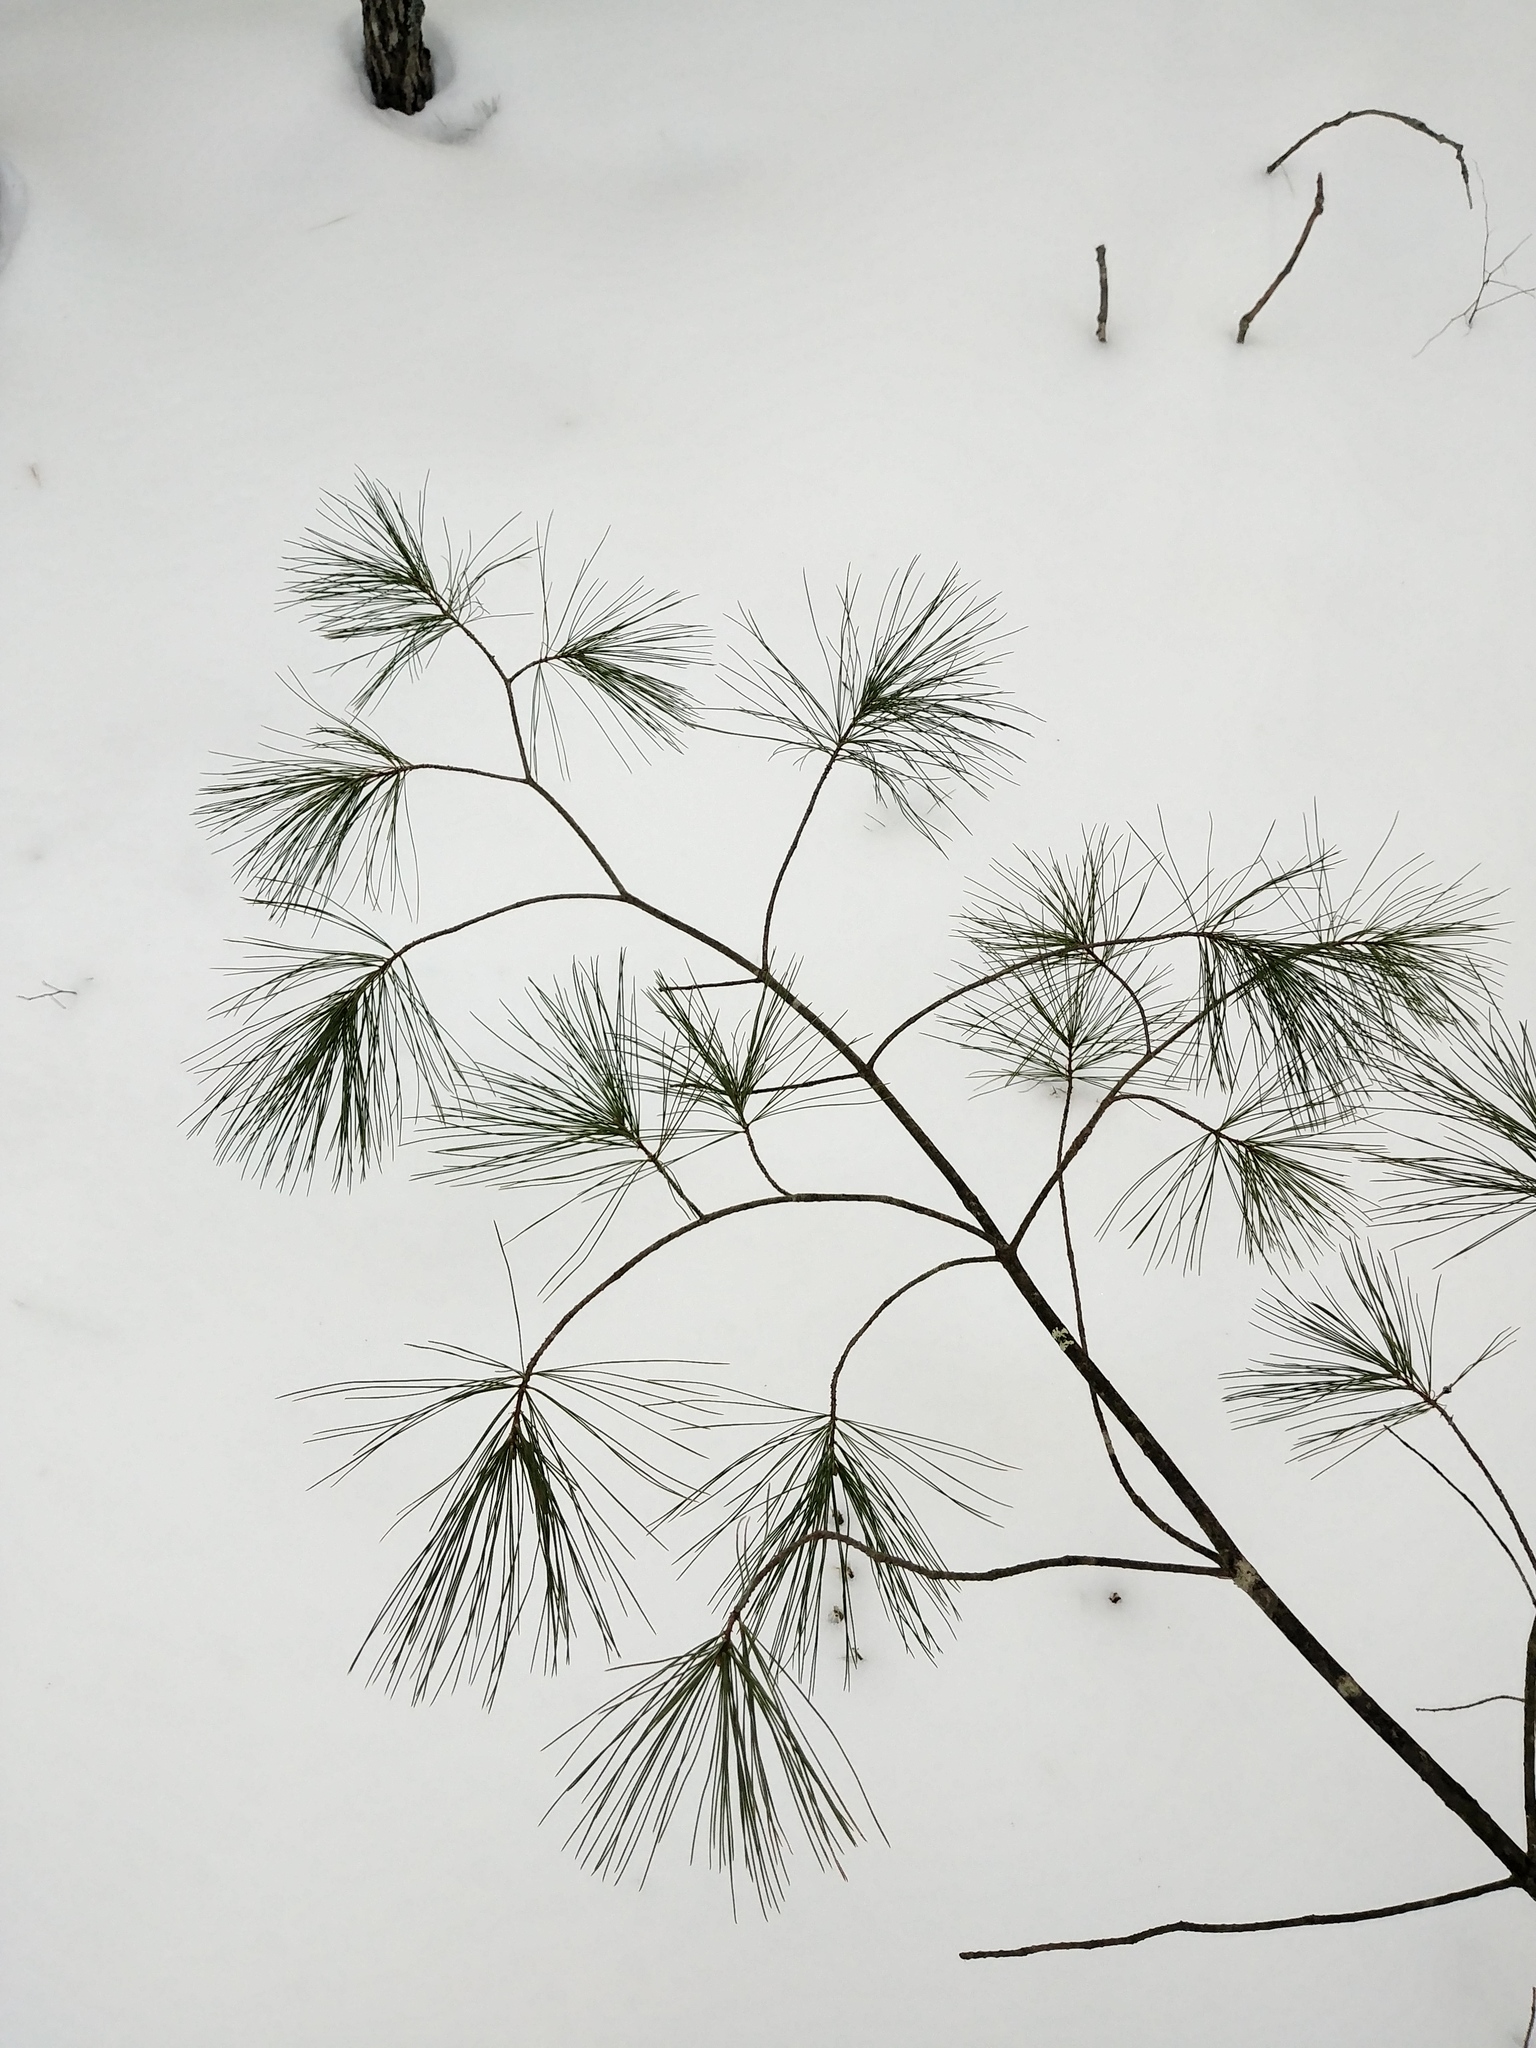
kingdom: Plantae
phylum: Tracheophyta
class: Pinopsida
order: Pinales
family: Pinaceae
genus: Pinus
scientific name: Pinus strobus
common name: Weymouth pine
